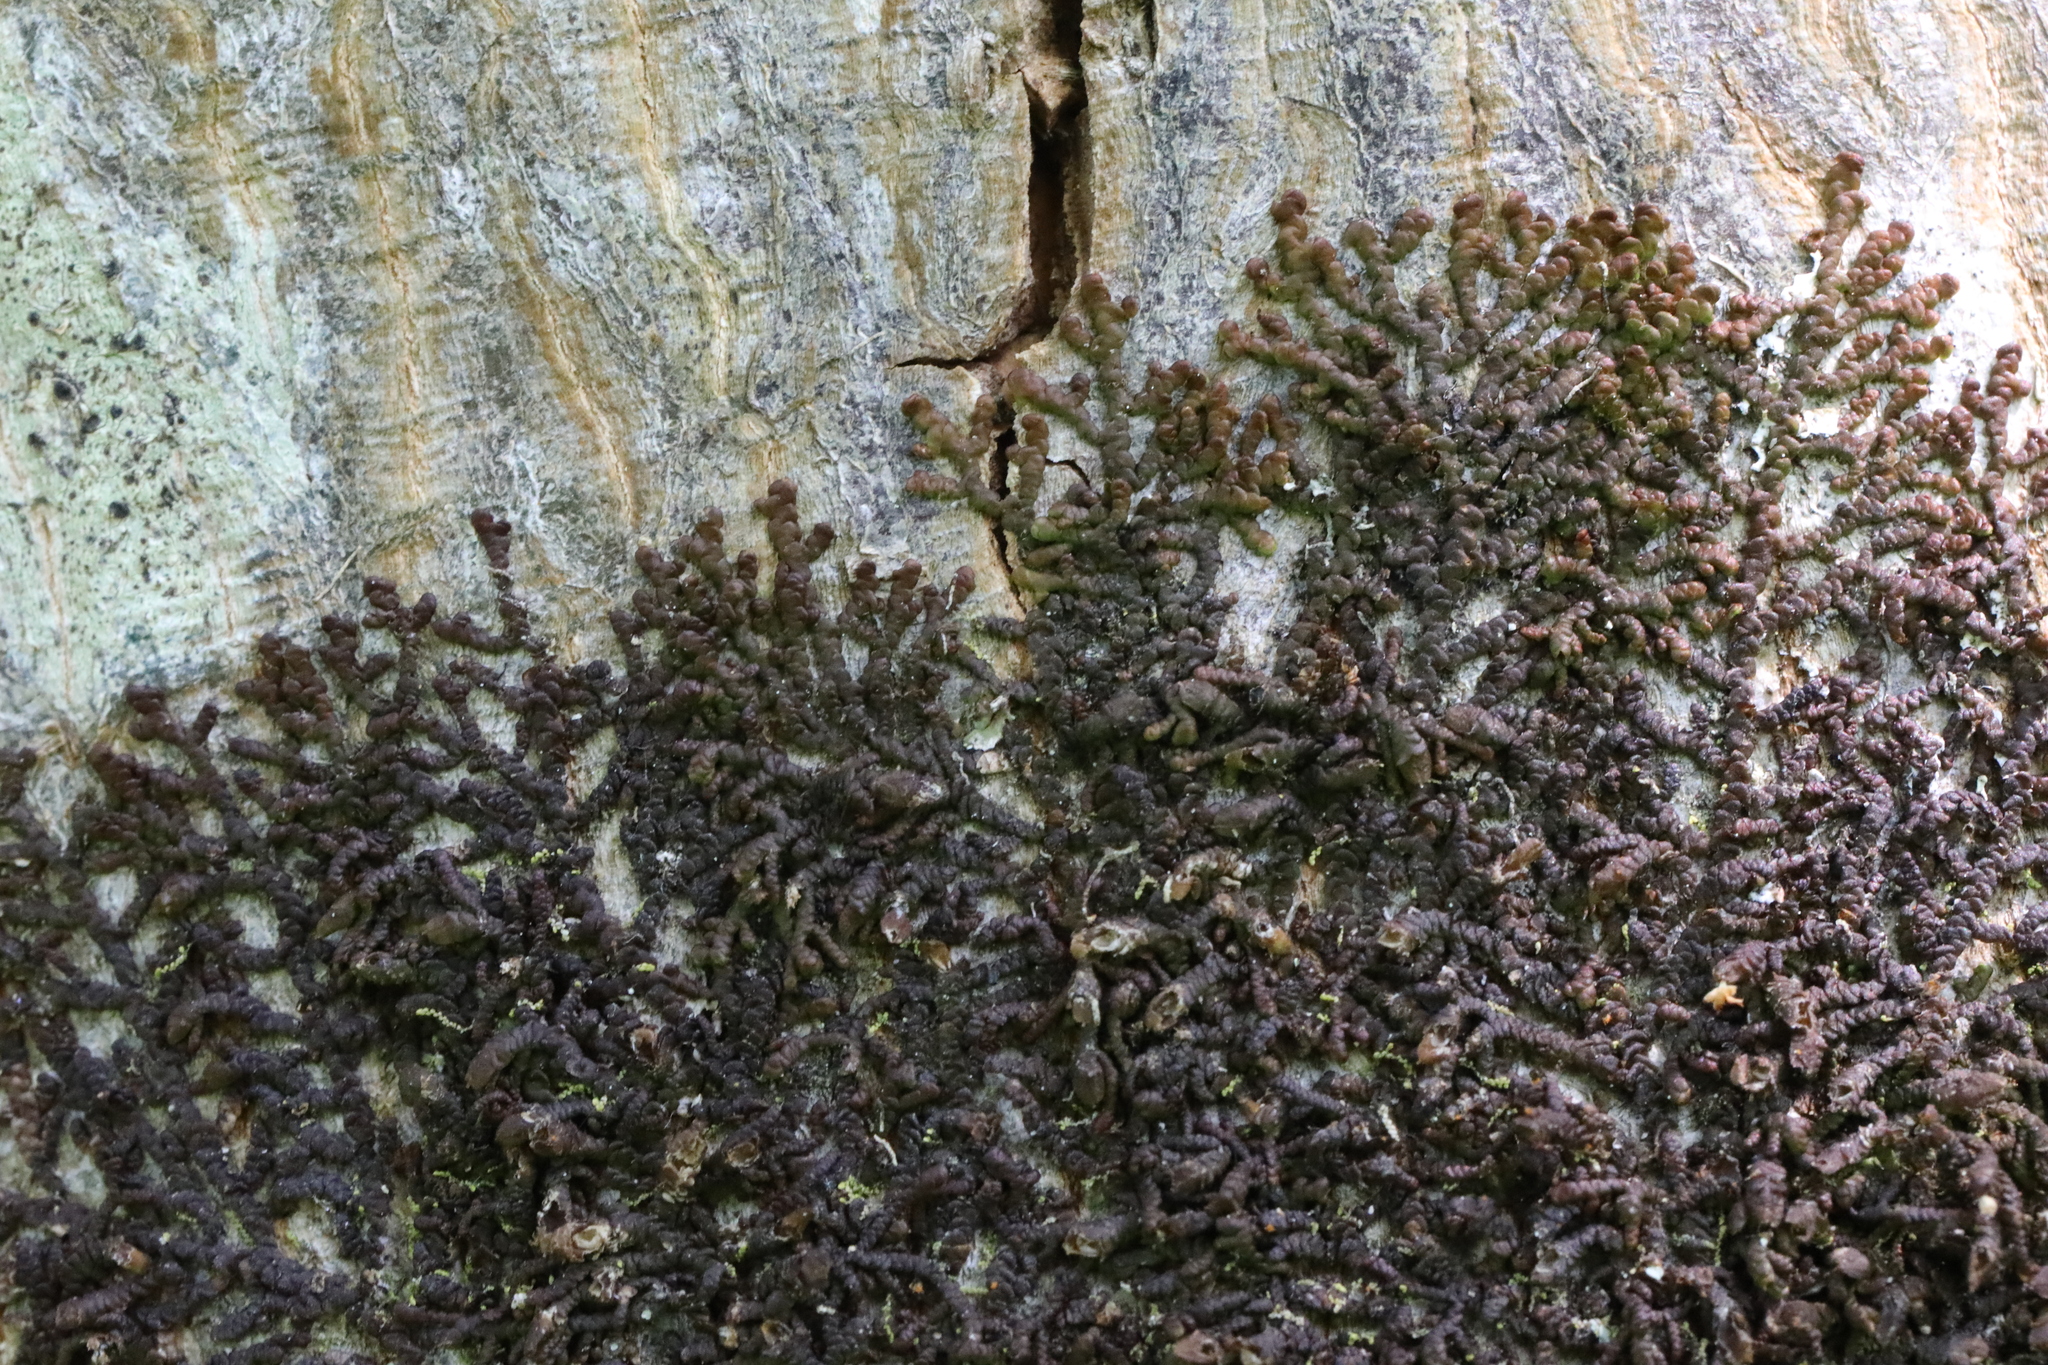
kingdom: Plantae
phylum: Marchantiophyta
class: Jungermanniopsida
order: Porellales
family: Frullaniaceae
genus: Frullania
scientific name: Frullania dilatata
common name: Dilated scalewort
